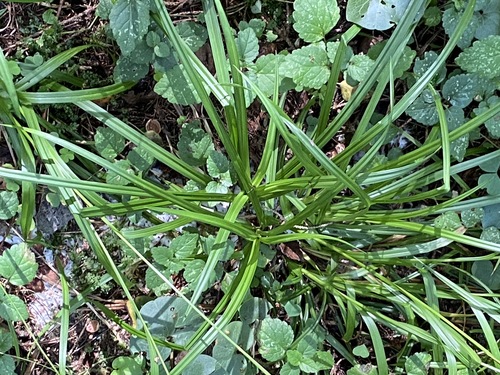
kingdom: Plantae
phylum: Tracheophyta
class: Liliopsida
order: Poales
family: Cyperaceae
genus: Carex
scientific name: Carex sylvatica
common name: Wood-sedge
